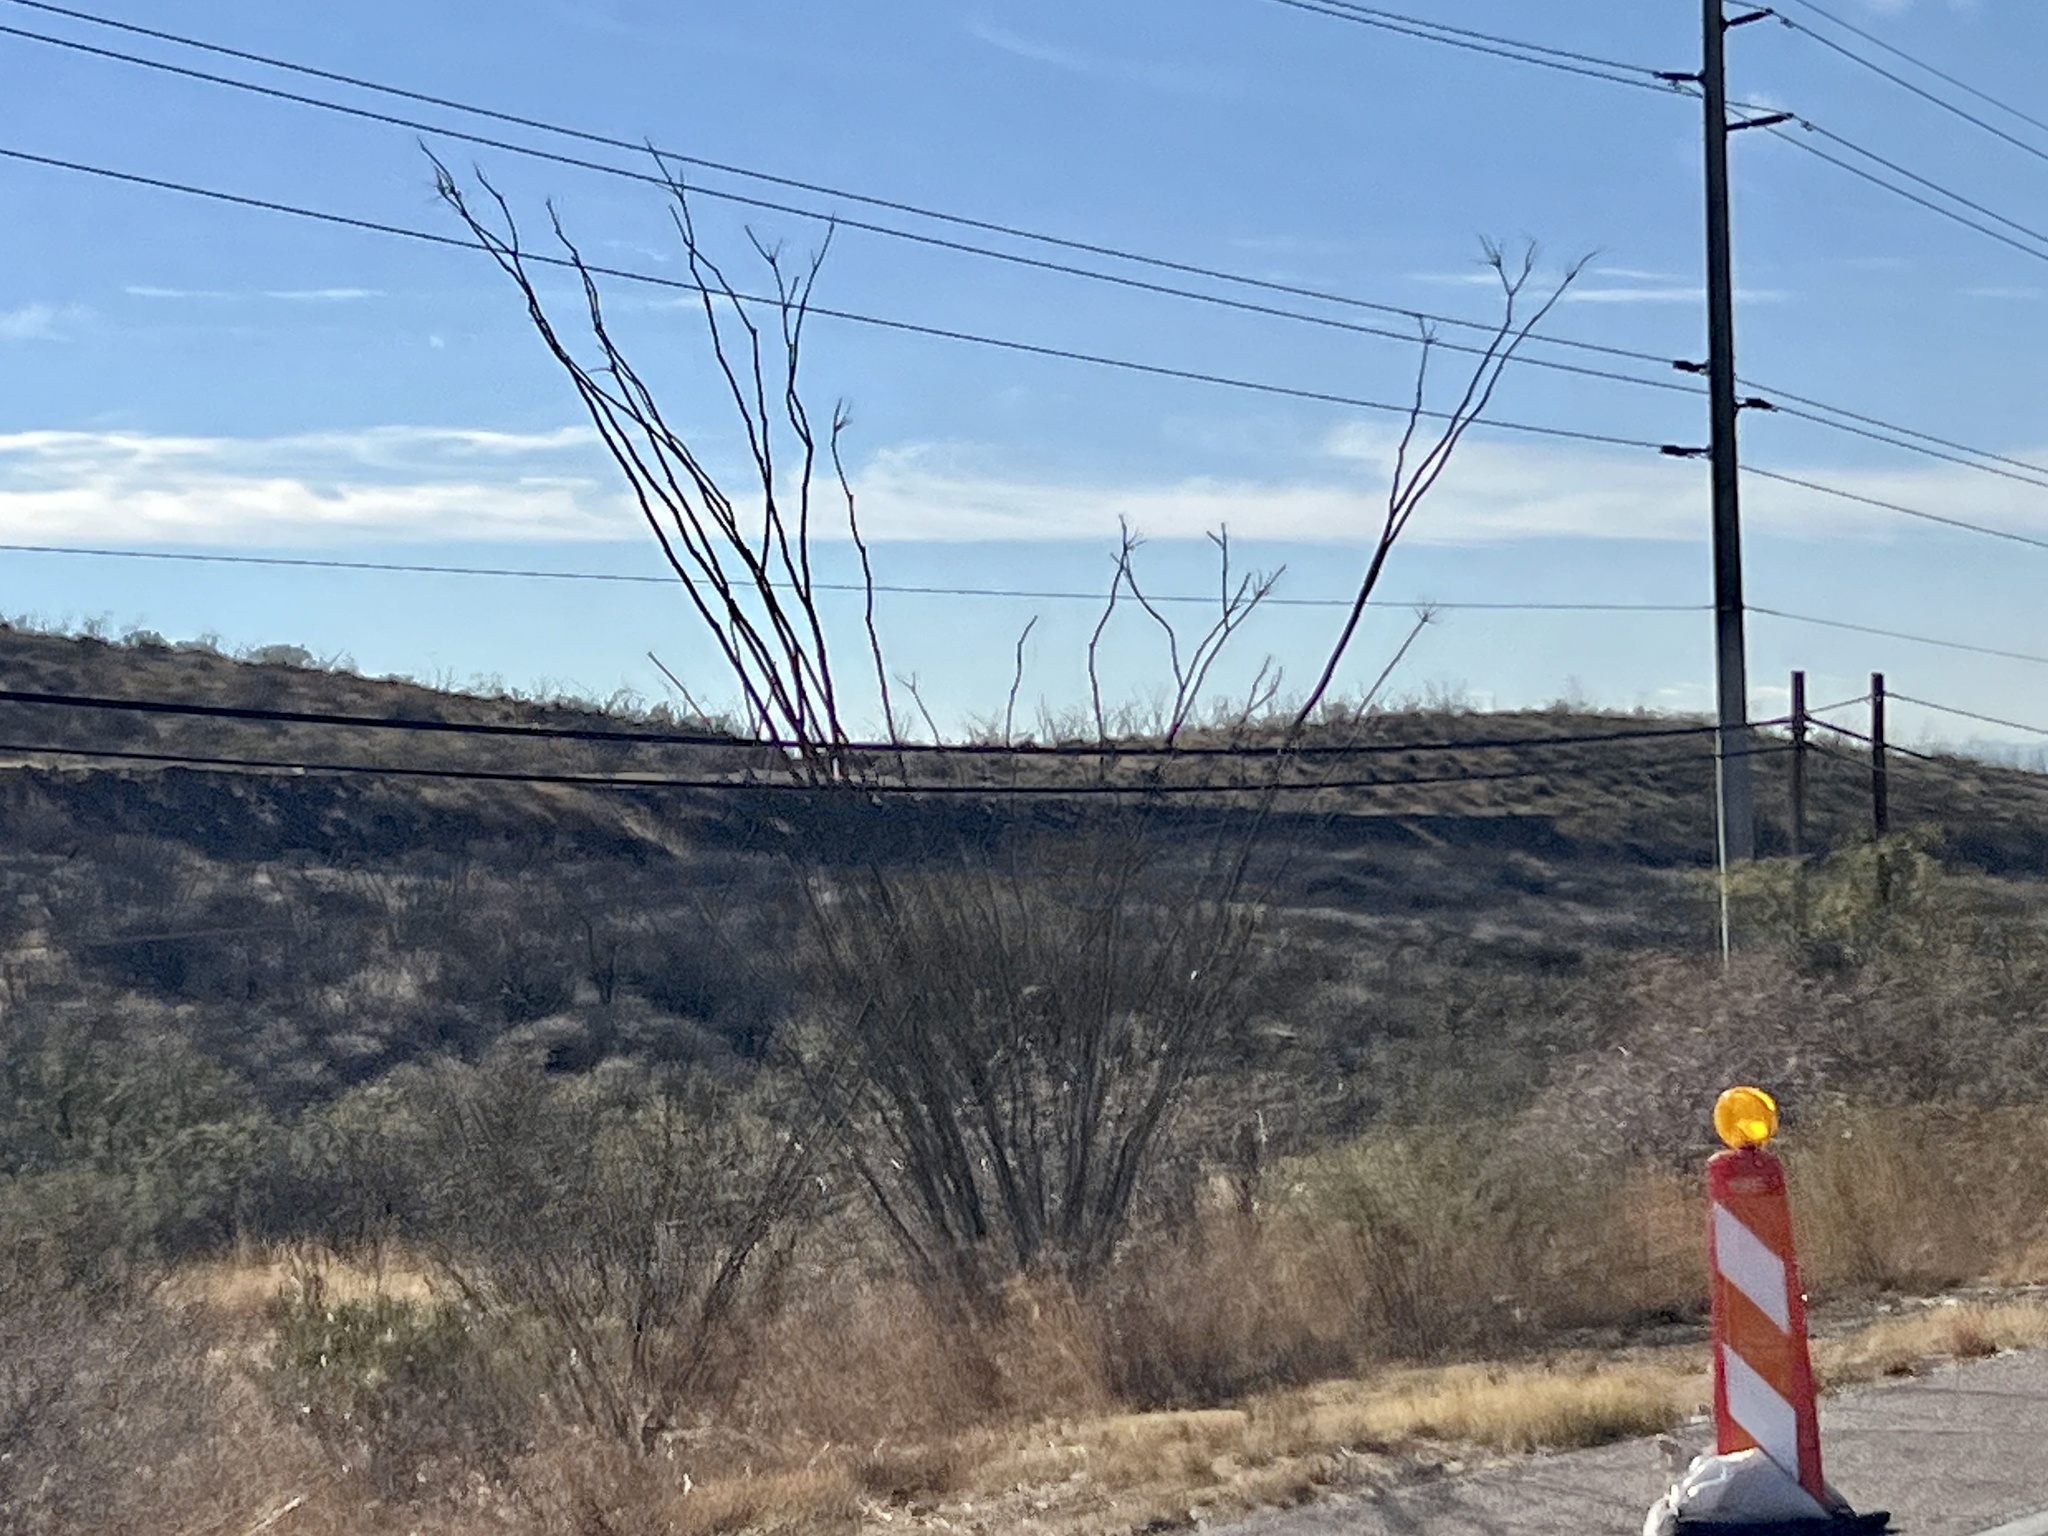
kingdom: Plantae
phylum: Tracheophyta
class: Magnoliopsida
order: Ericales
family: Fouquieriaceae
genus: Fouquieria
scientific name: Fouquieria splendens
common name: Vine-cactus
